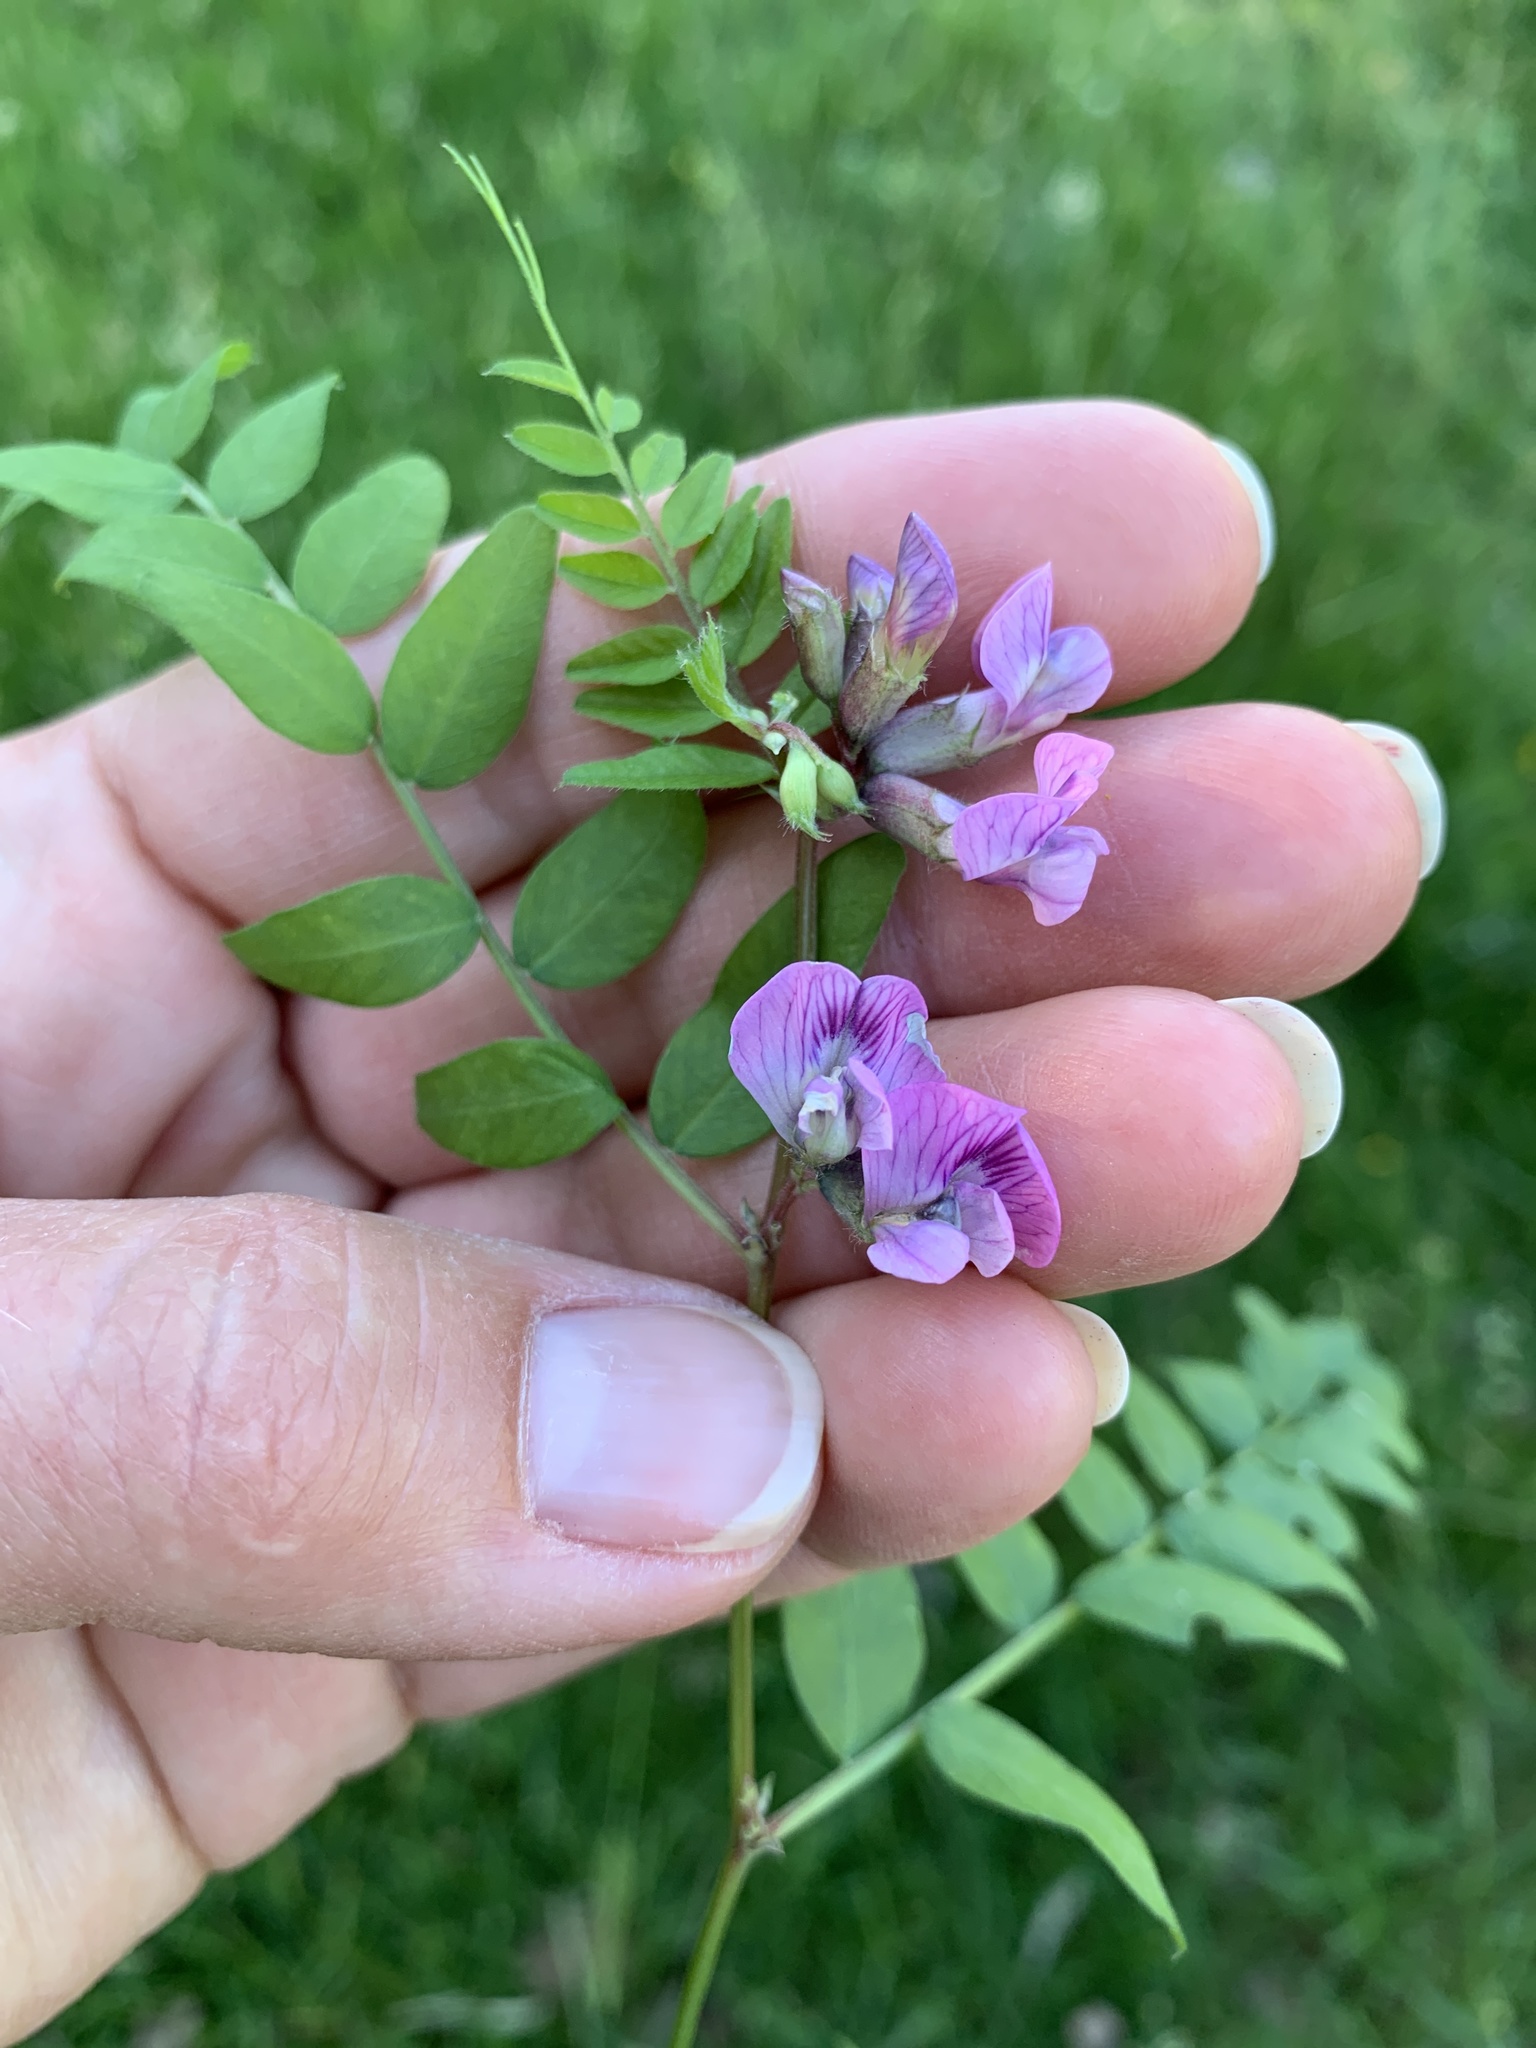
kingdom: Plantae
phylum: Tracheophyta
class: Magnoliopsida
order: Fabales
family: Fabaceae
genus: Vicia
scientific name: Vicia sepium
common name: Bush vetch
